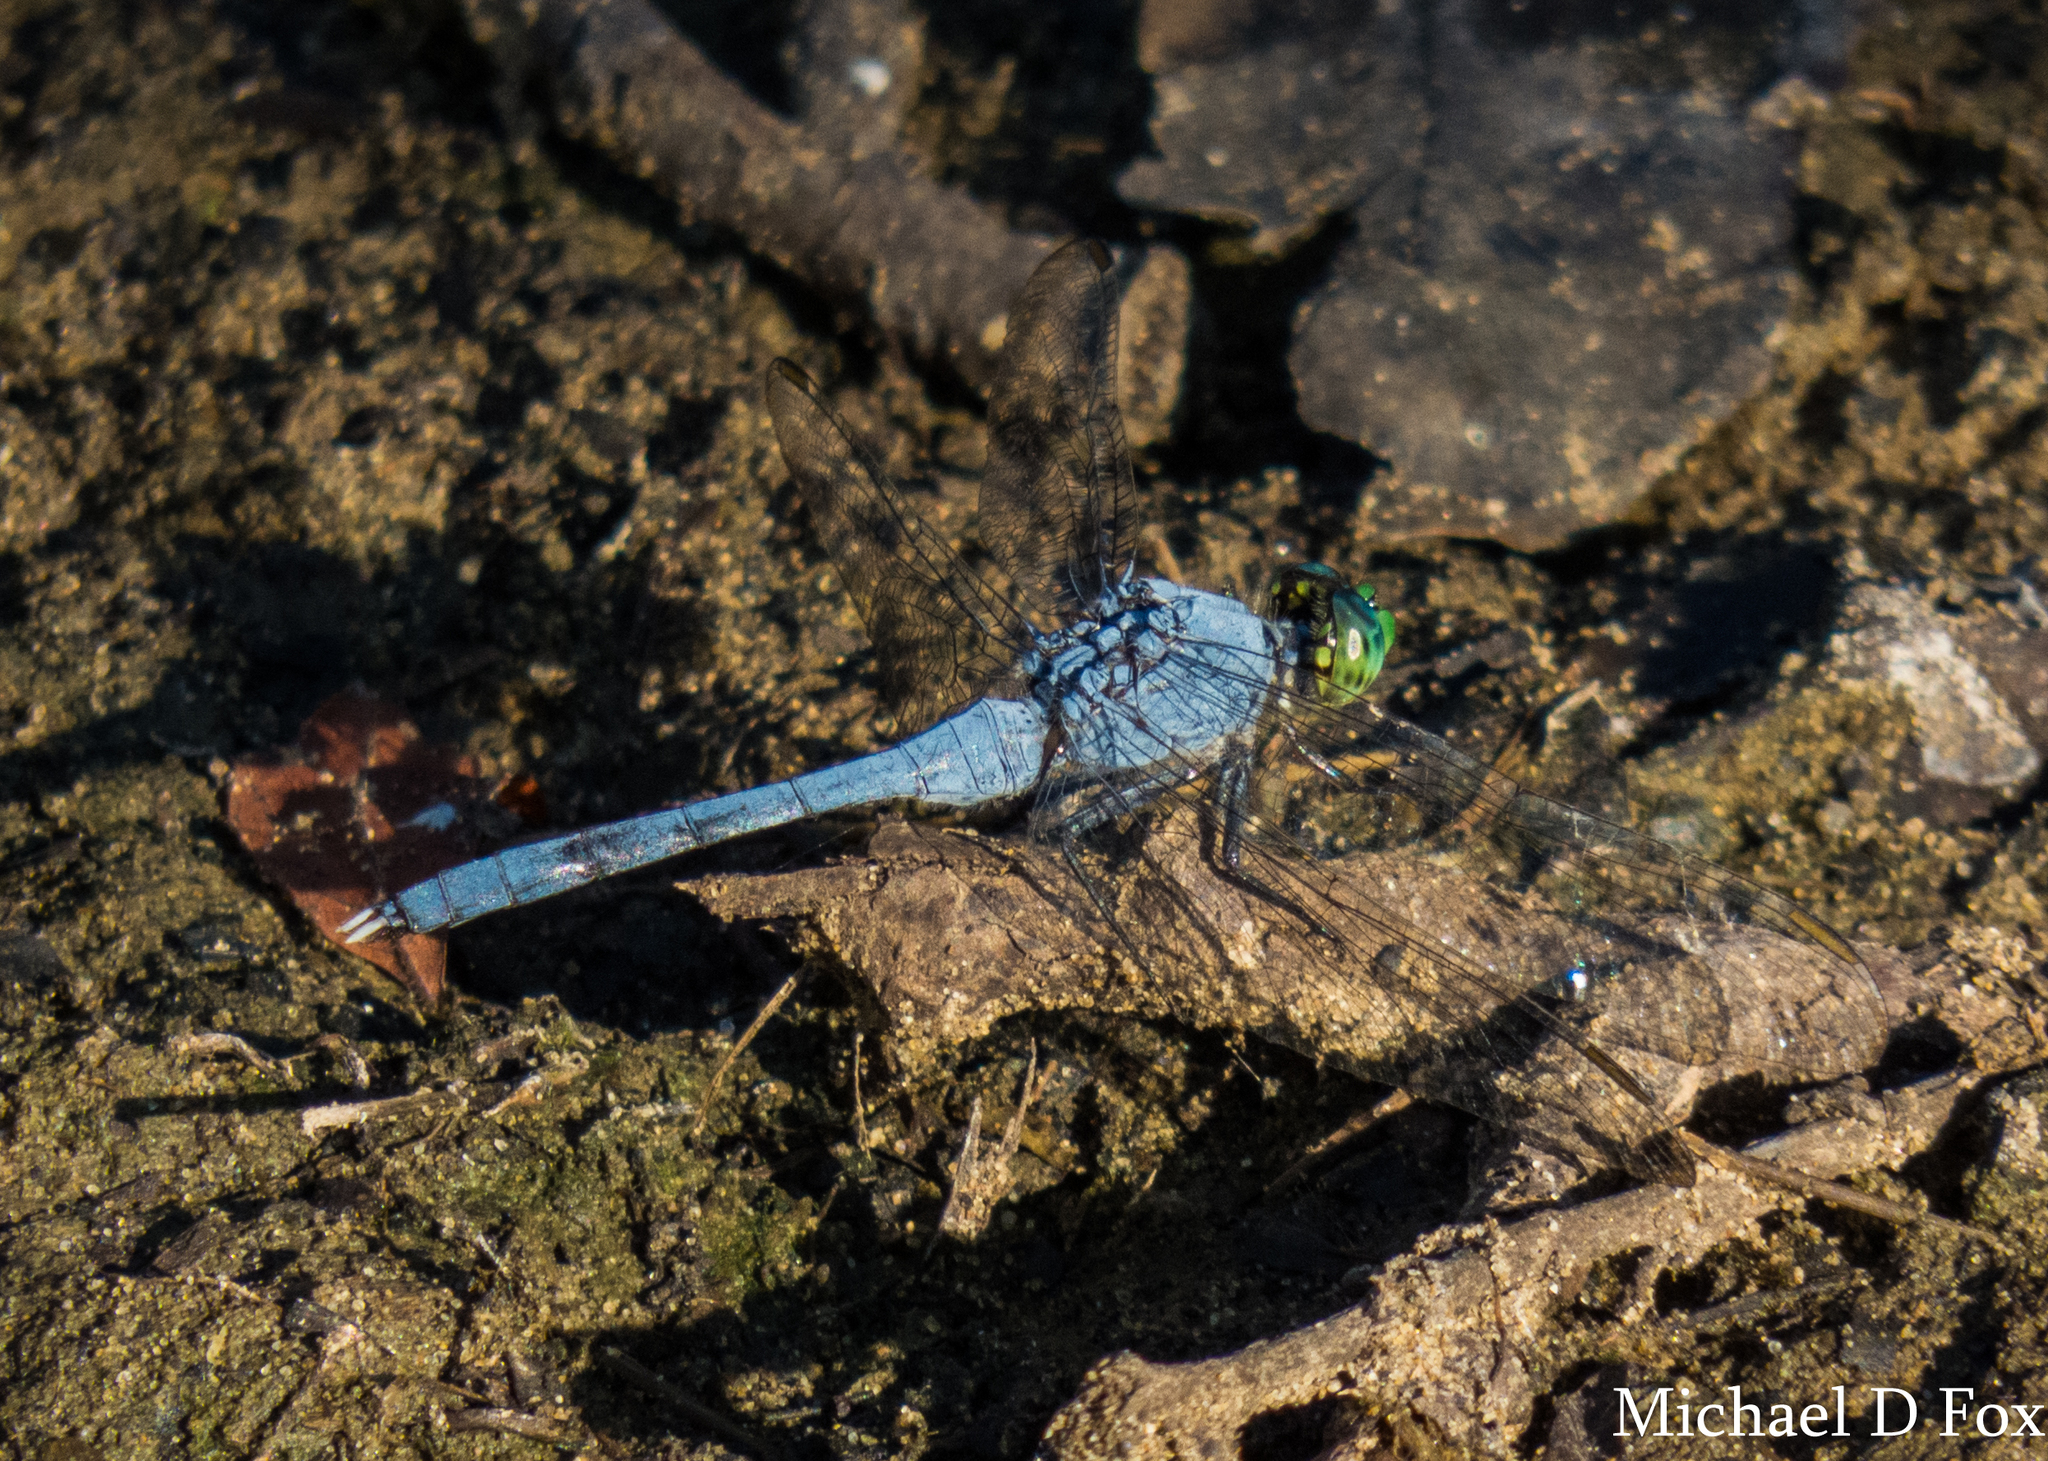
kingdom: Animalia
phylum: Arthropoda
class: Insecta
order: Odonata
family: Libellulidae
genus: Erythemis
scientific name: Erythemis simplicicollis
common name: Eastern pondhawk
